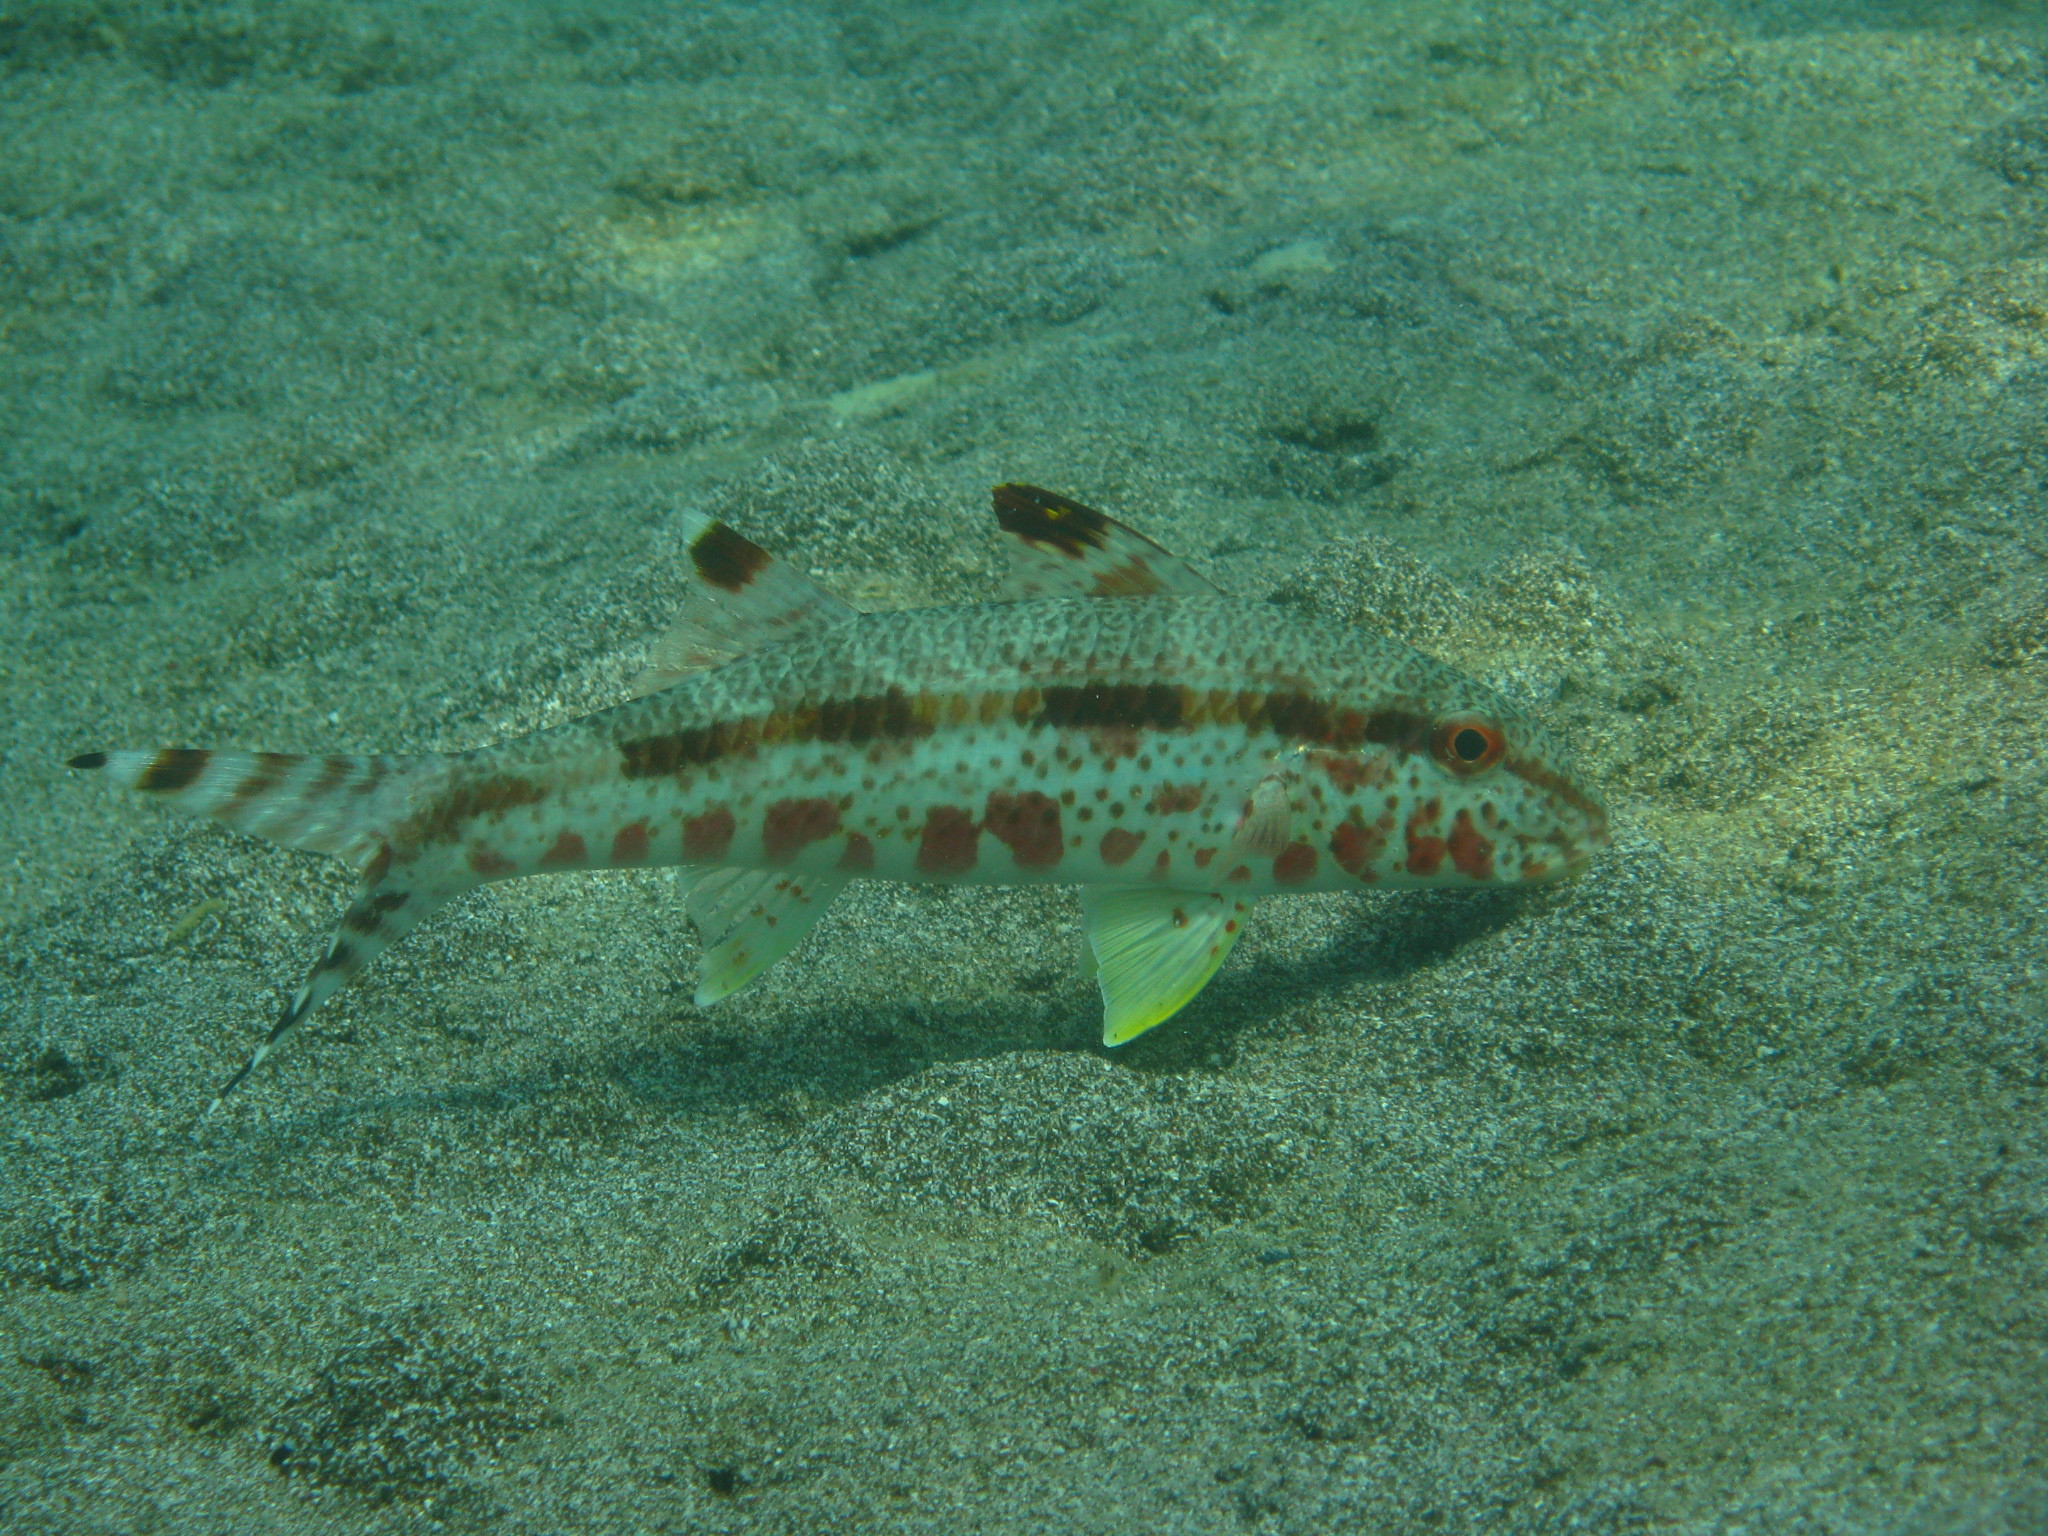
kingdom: Animalia
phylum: Chordata
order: Perciformes
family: Mullidae
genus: Upeneus
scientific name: Upeneus tragula
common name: Freckled goatfish
